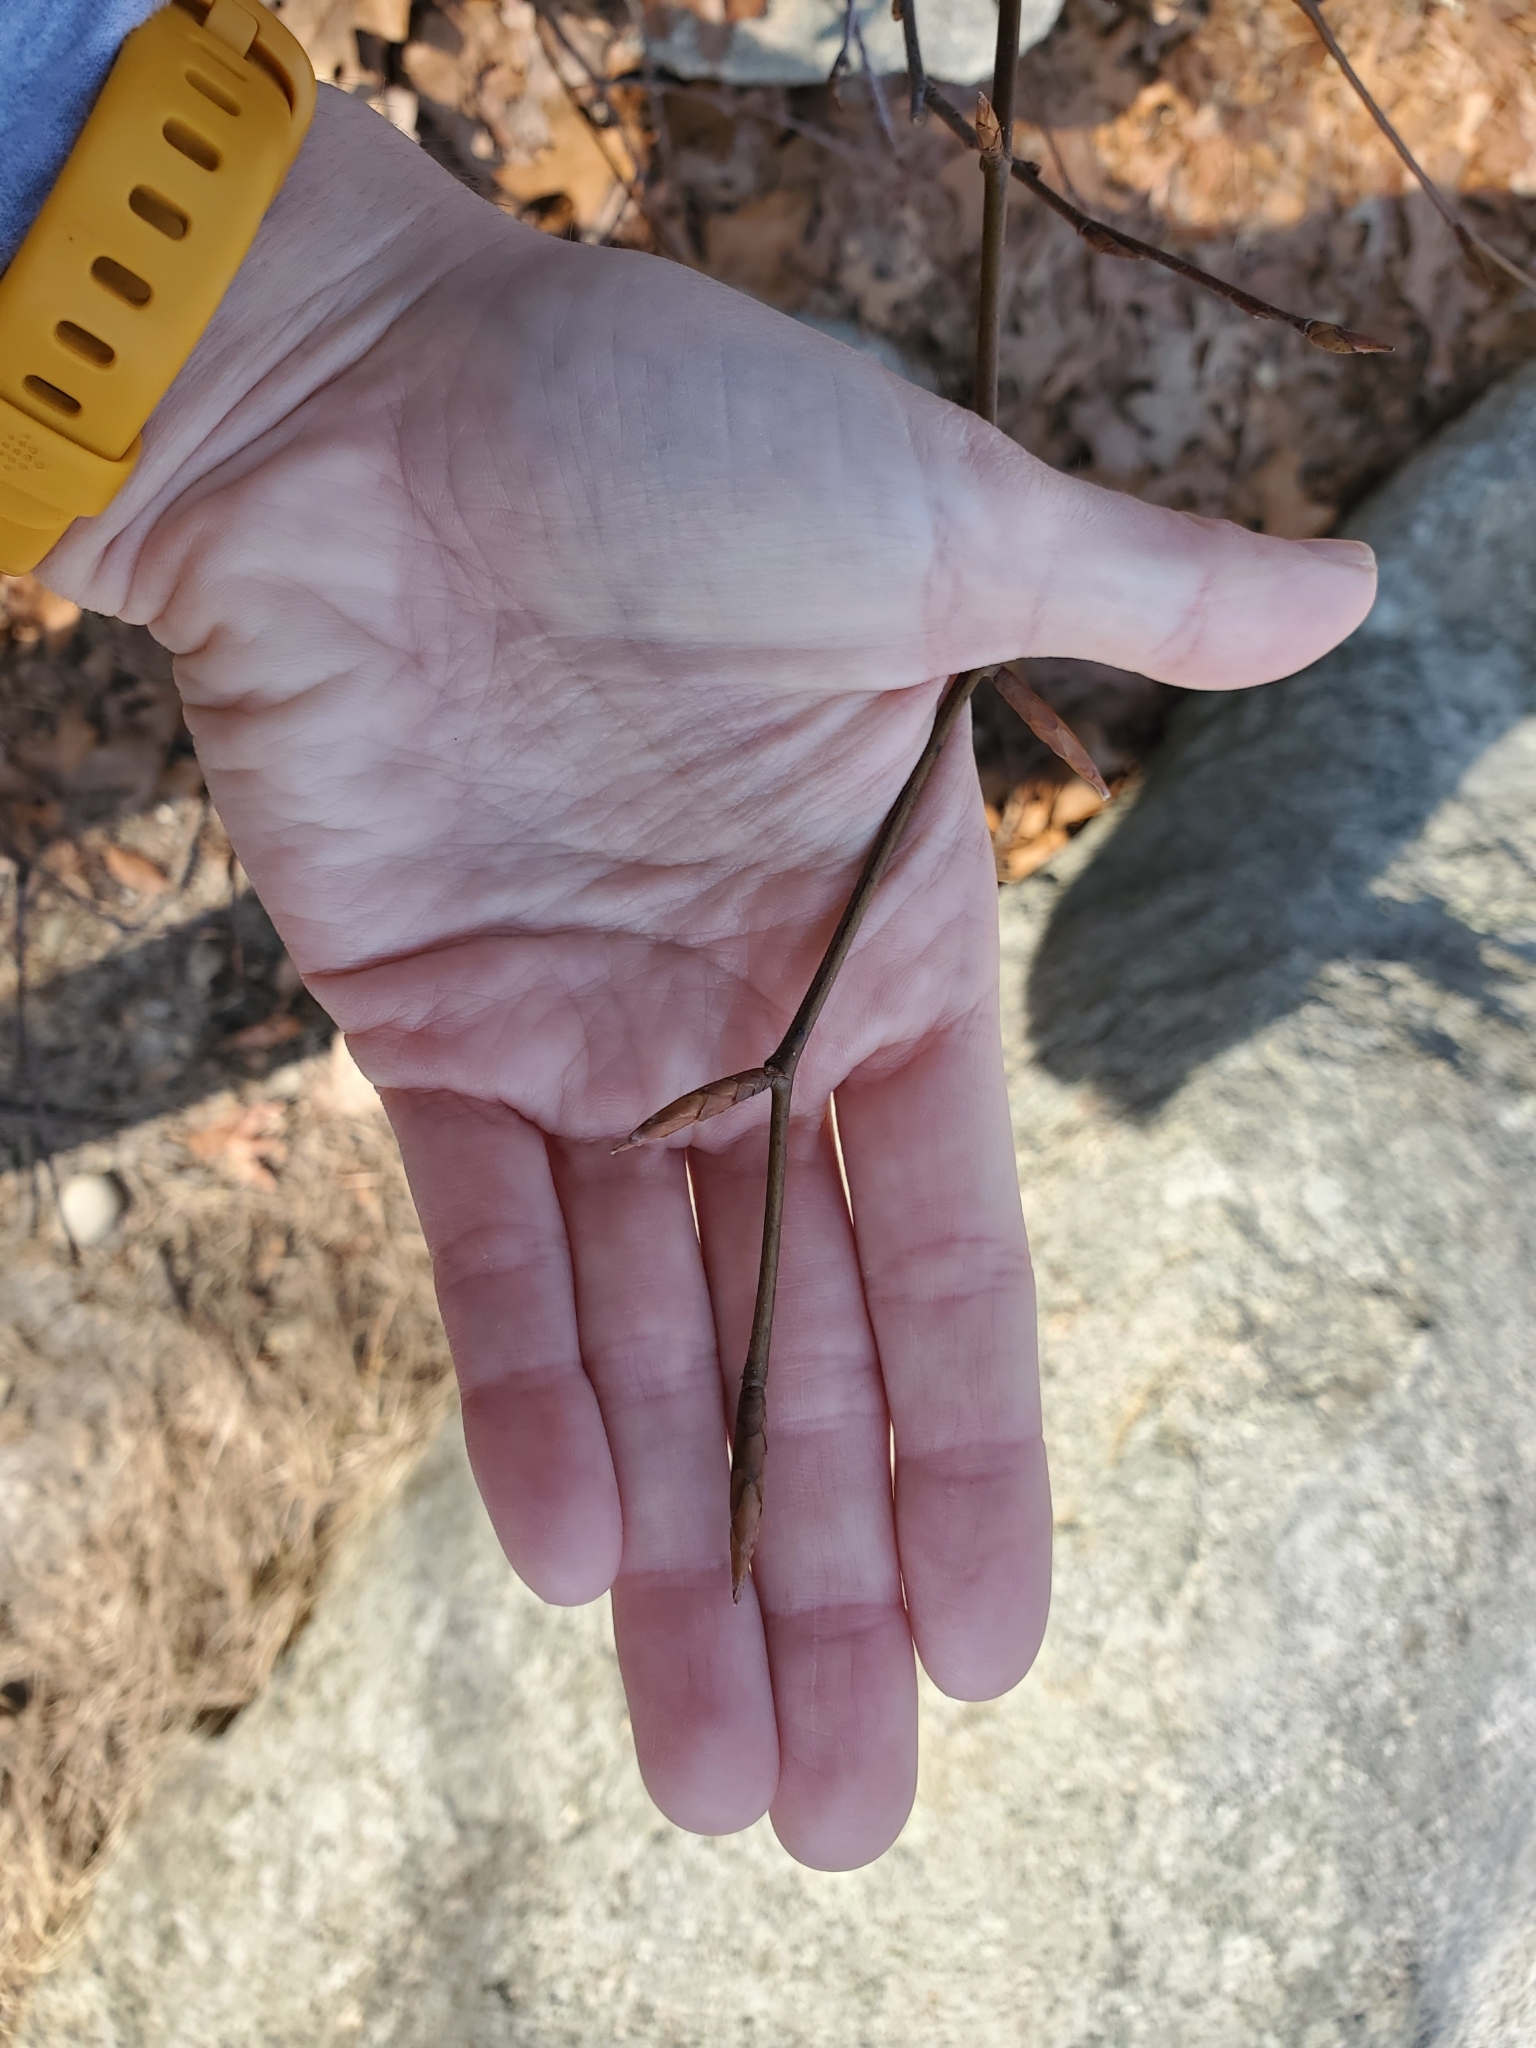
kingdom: Plantae
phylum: Tracheophyta
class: Magnoliopsida
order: Fagales
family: Fagaceae
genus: Fagus
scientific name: Fagus grandifolia
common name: American beech
